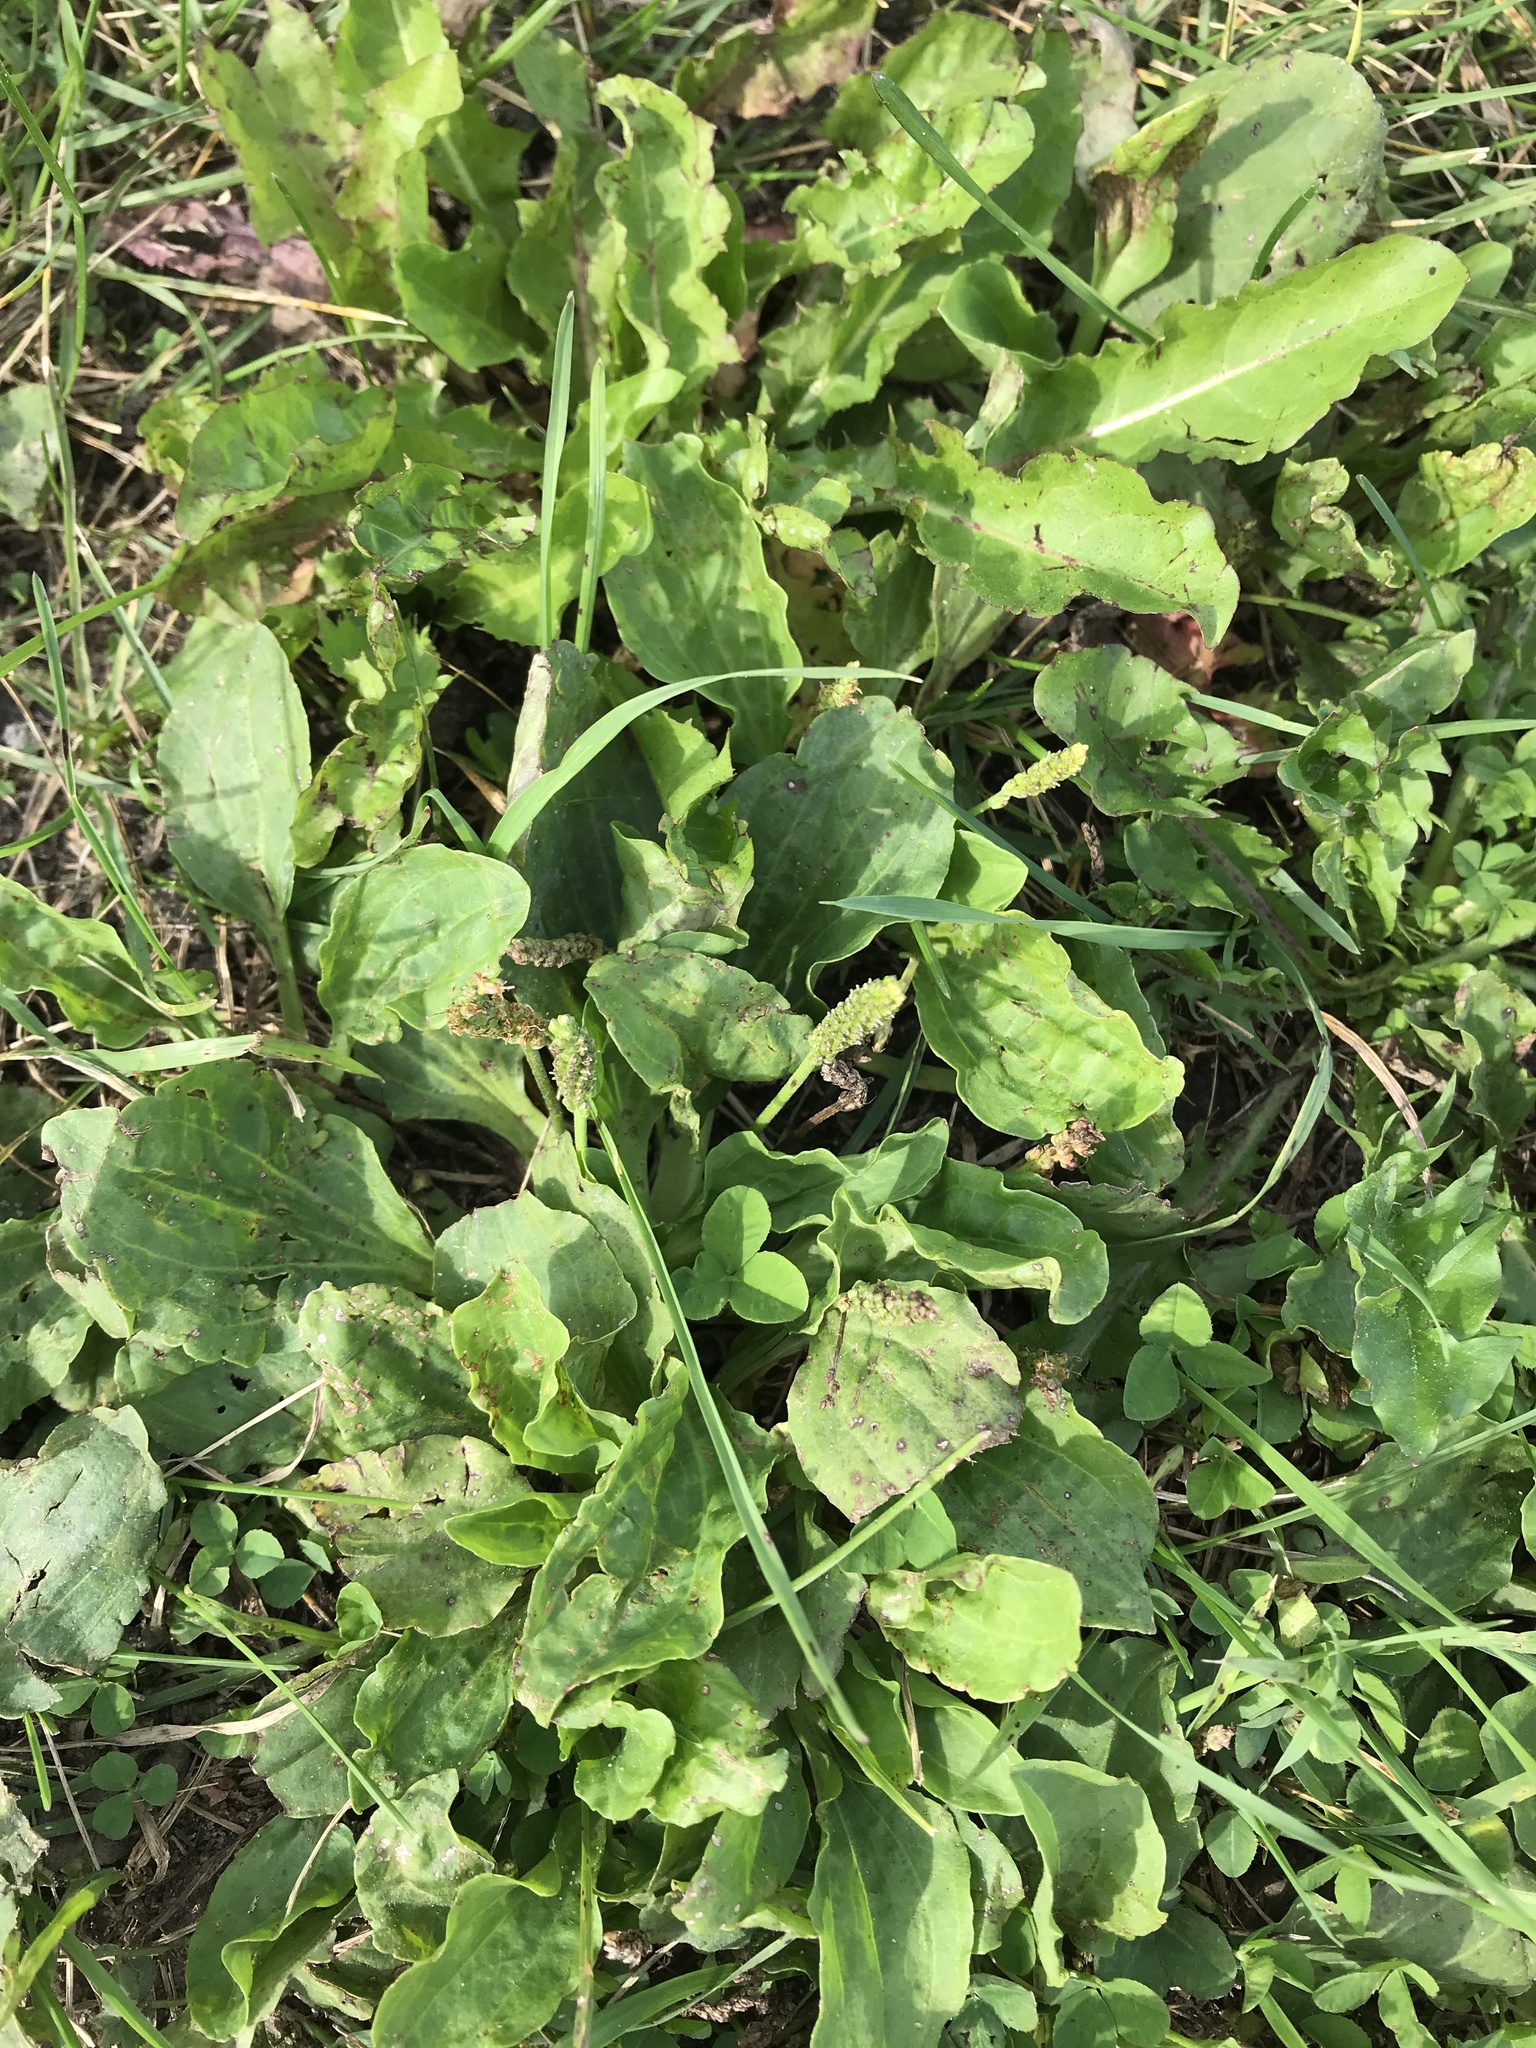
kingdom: Plantae
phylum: Tracheophyta
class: Magnoliopsida
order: Lamiales
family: Plantaginaceae
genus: Plantago
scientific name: Plantago major
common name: Common plantain
